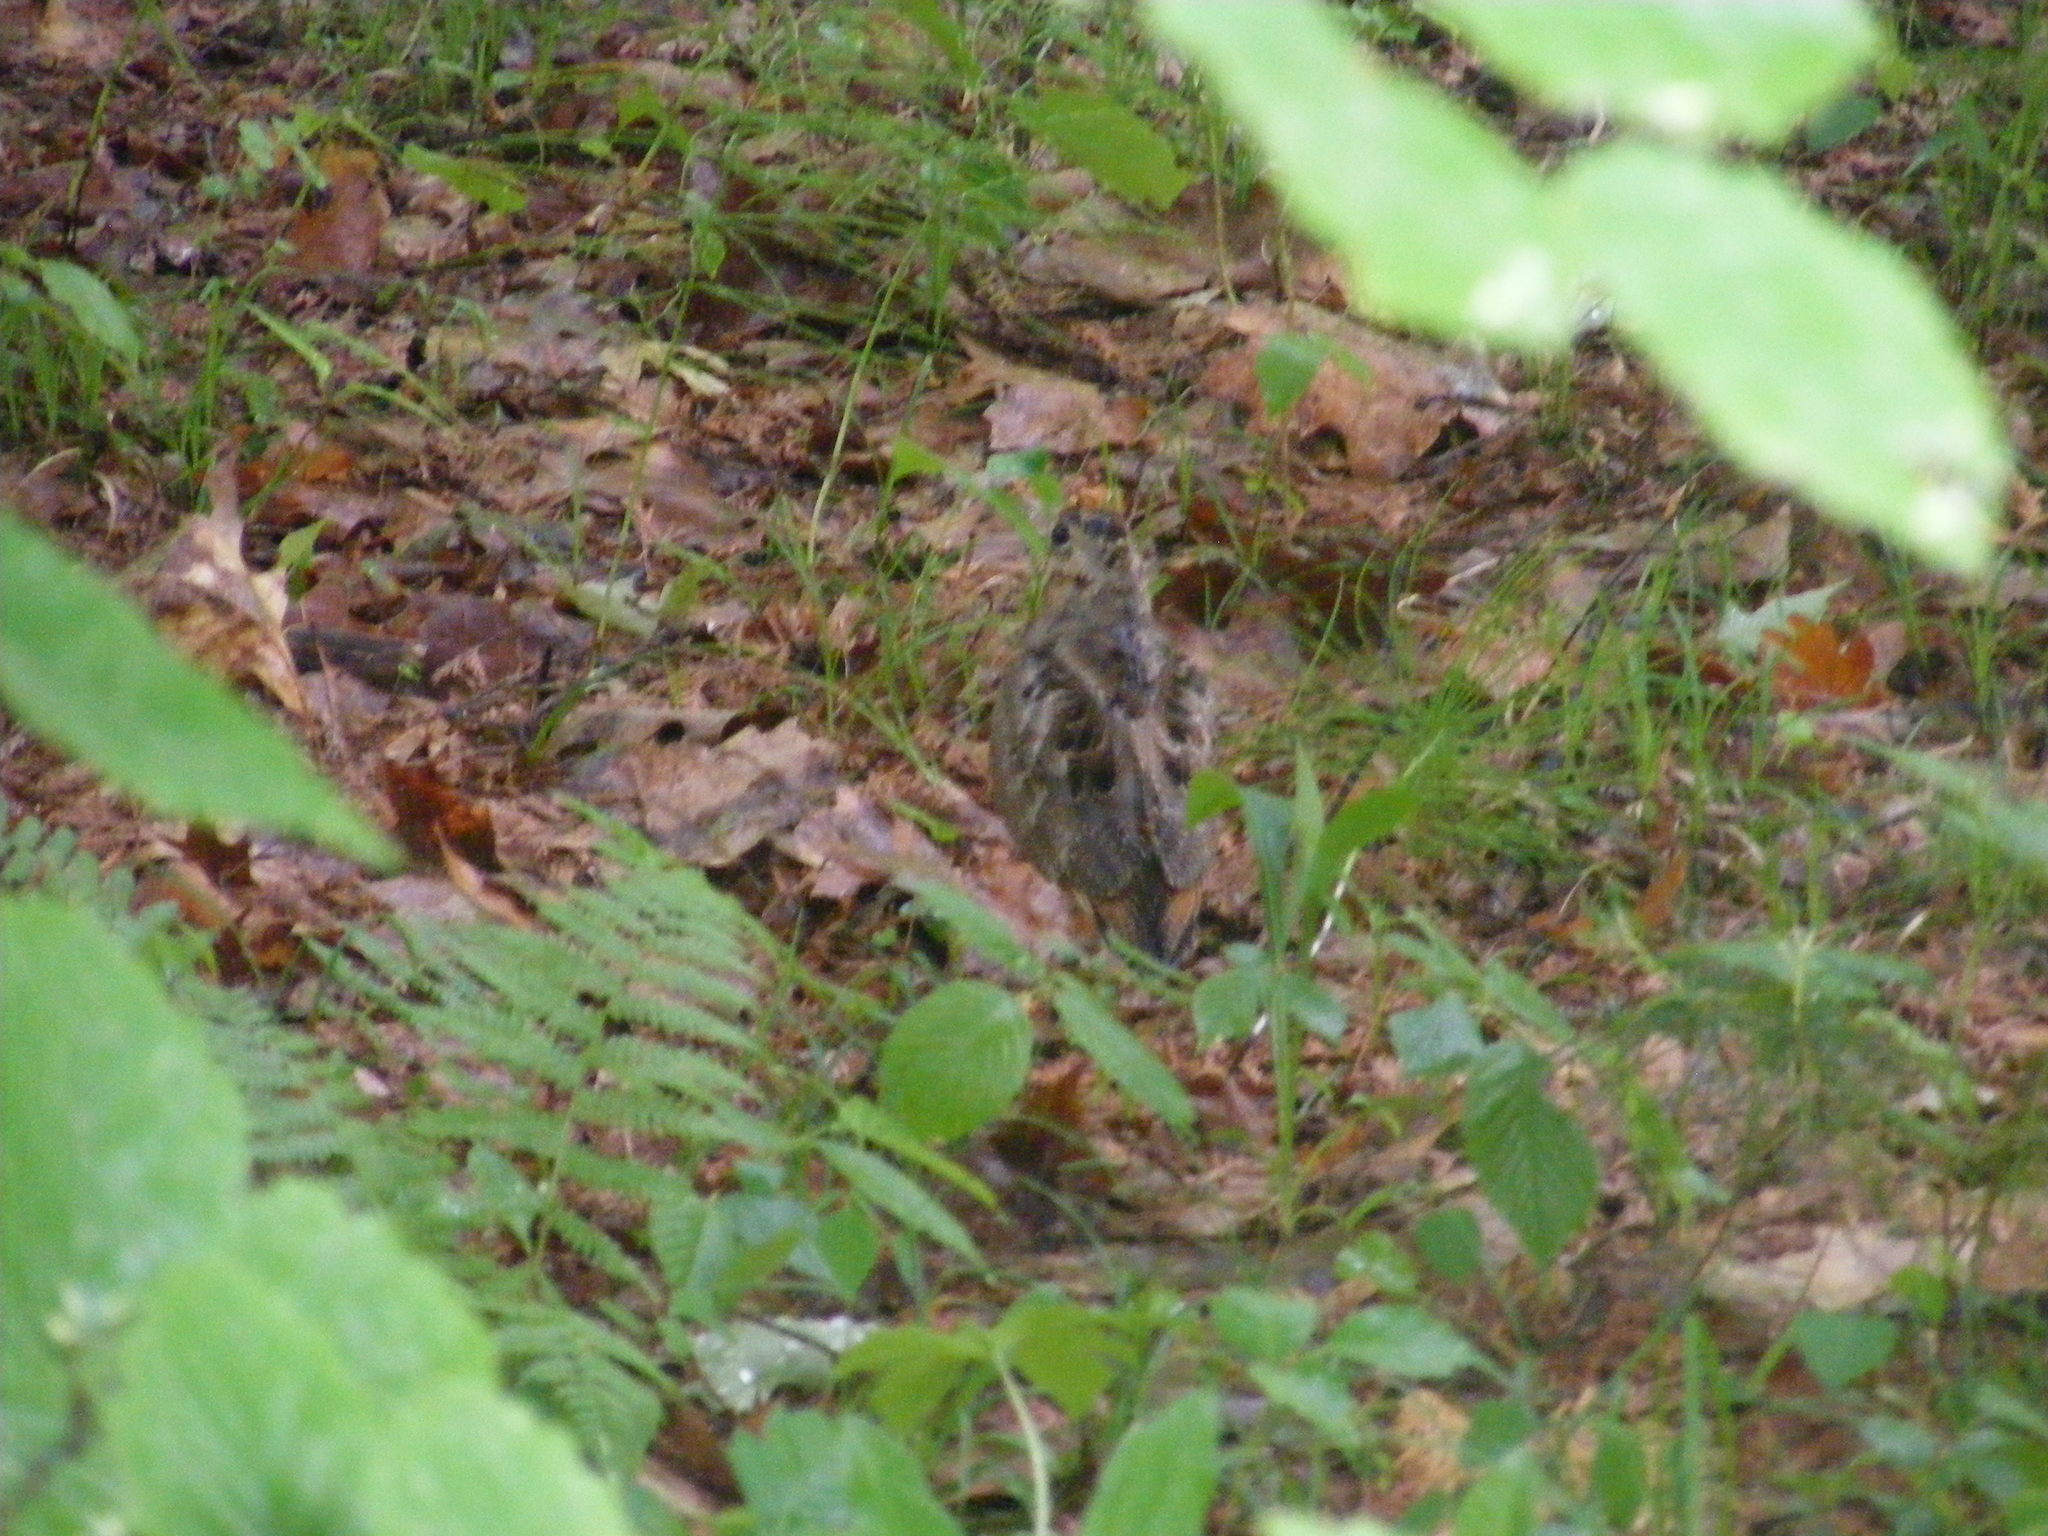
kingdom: Animalia
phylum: Chordata
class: Aves
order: Charadriiformes
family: Scolopacidae
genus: Scolopax
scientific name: Scolopax minor
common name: American woodcock
